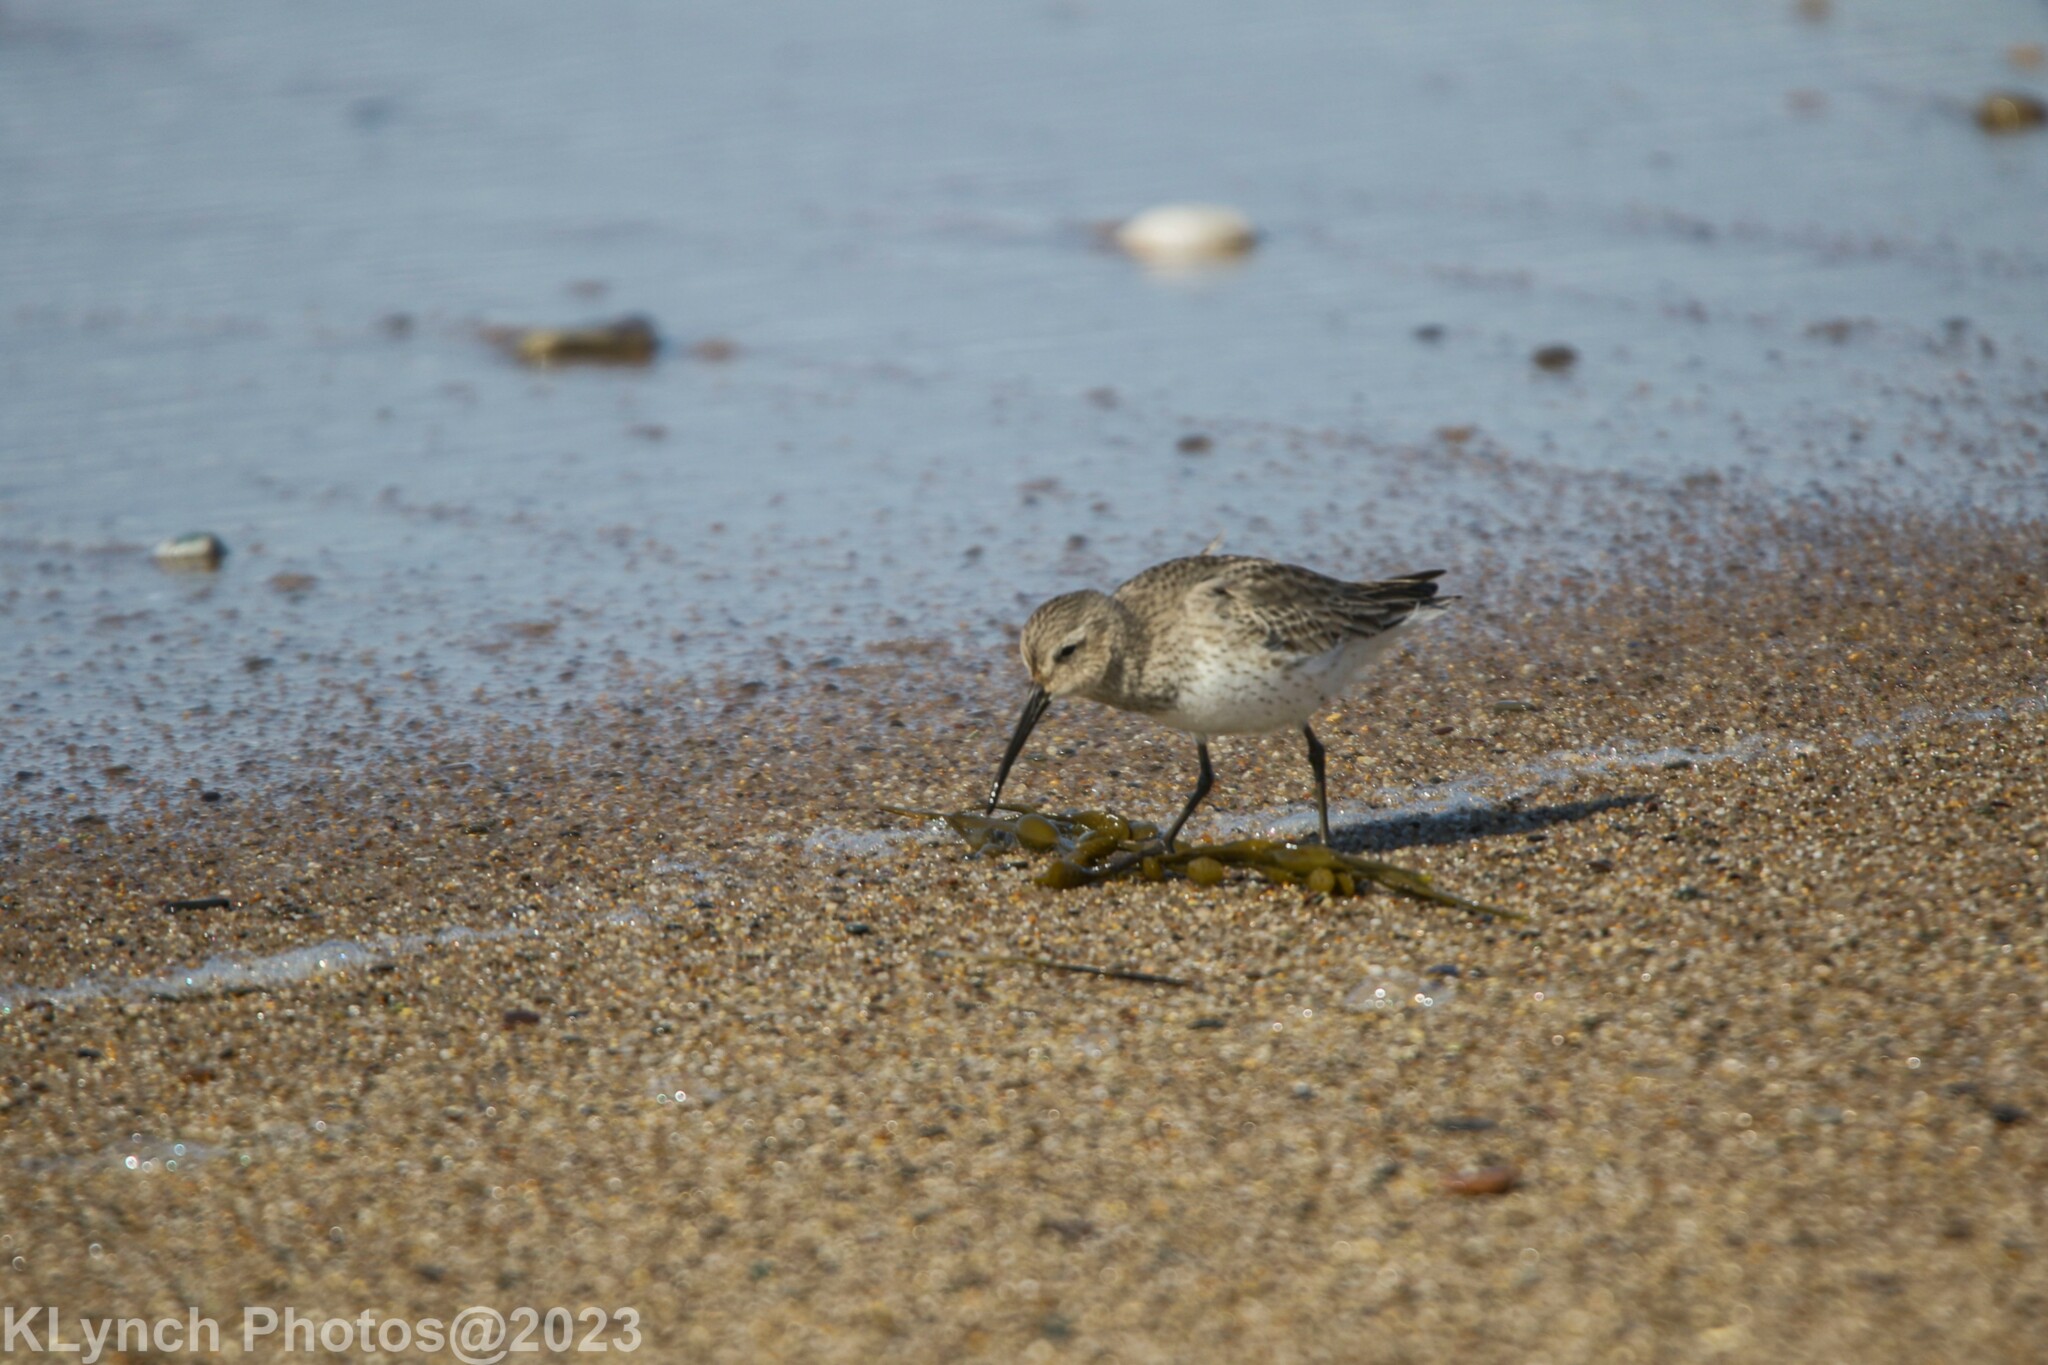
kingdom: Animalia
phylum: Chordata
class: Aves
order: Charadriiformes
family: Scolopacidae
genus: Calidris
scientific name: Calidris alpina
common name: Dunlin
